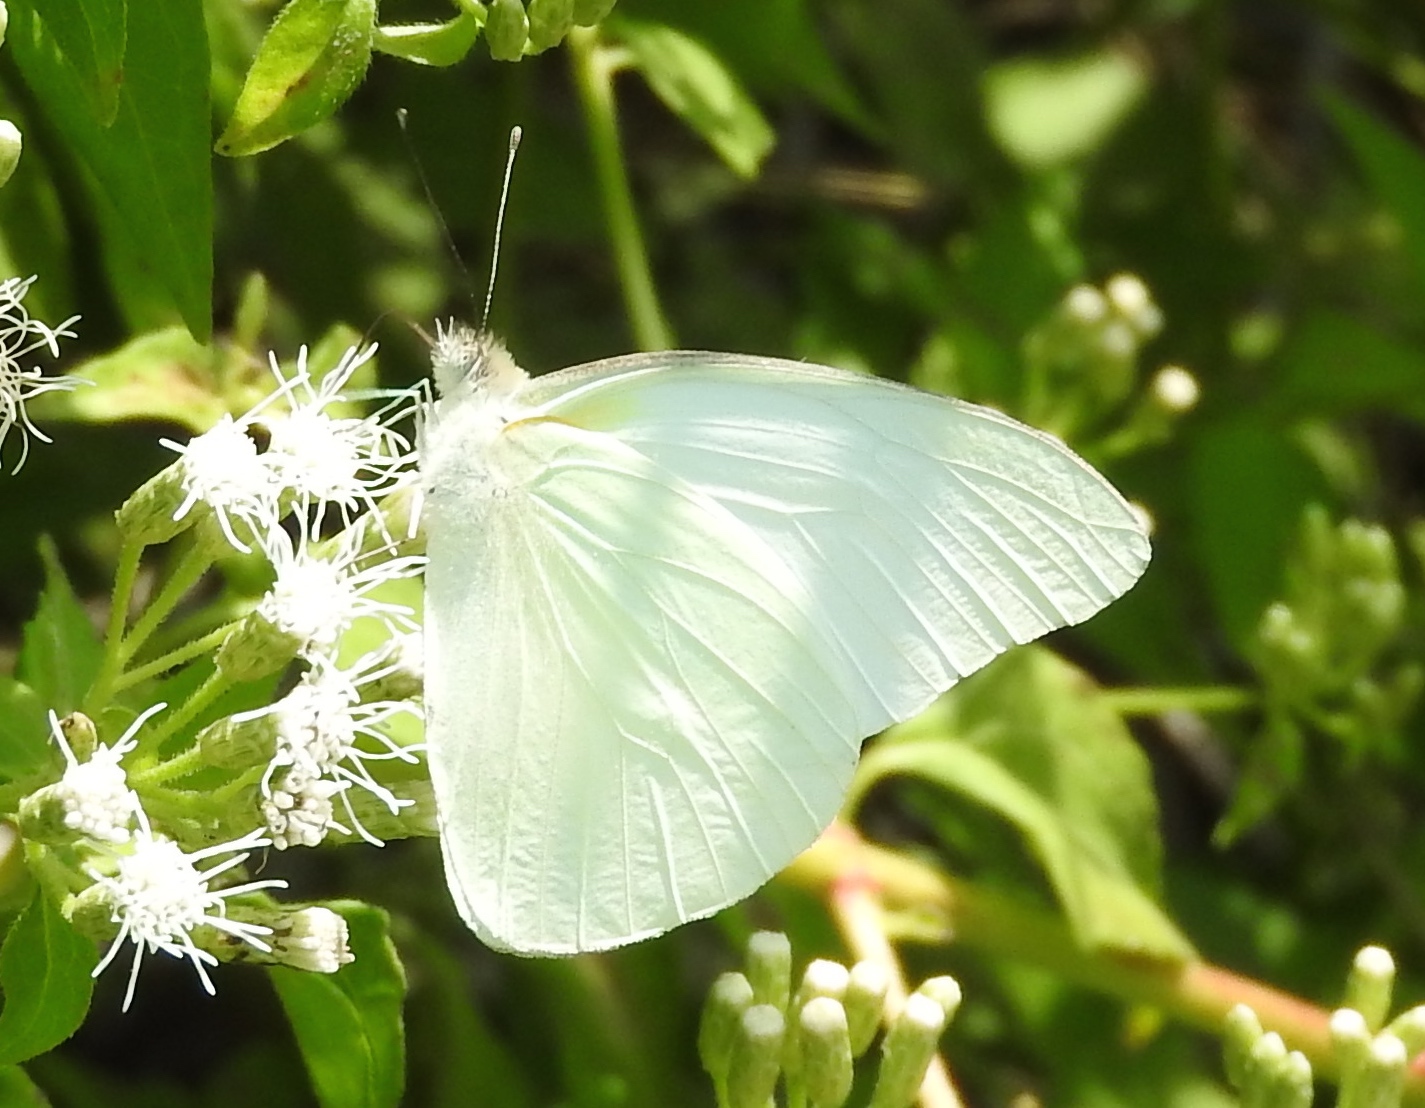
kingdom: Animalia
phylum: Arthropoda
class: Insecta
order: Lepidoptera
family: Pieridae
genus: Glutophrissa
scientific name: Glutophrissa drusilla
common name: Florida white
